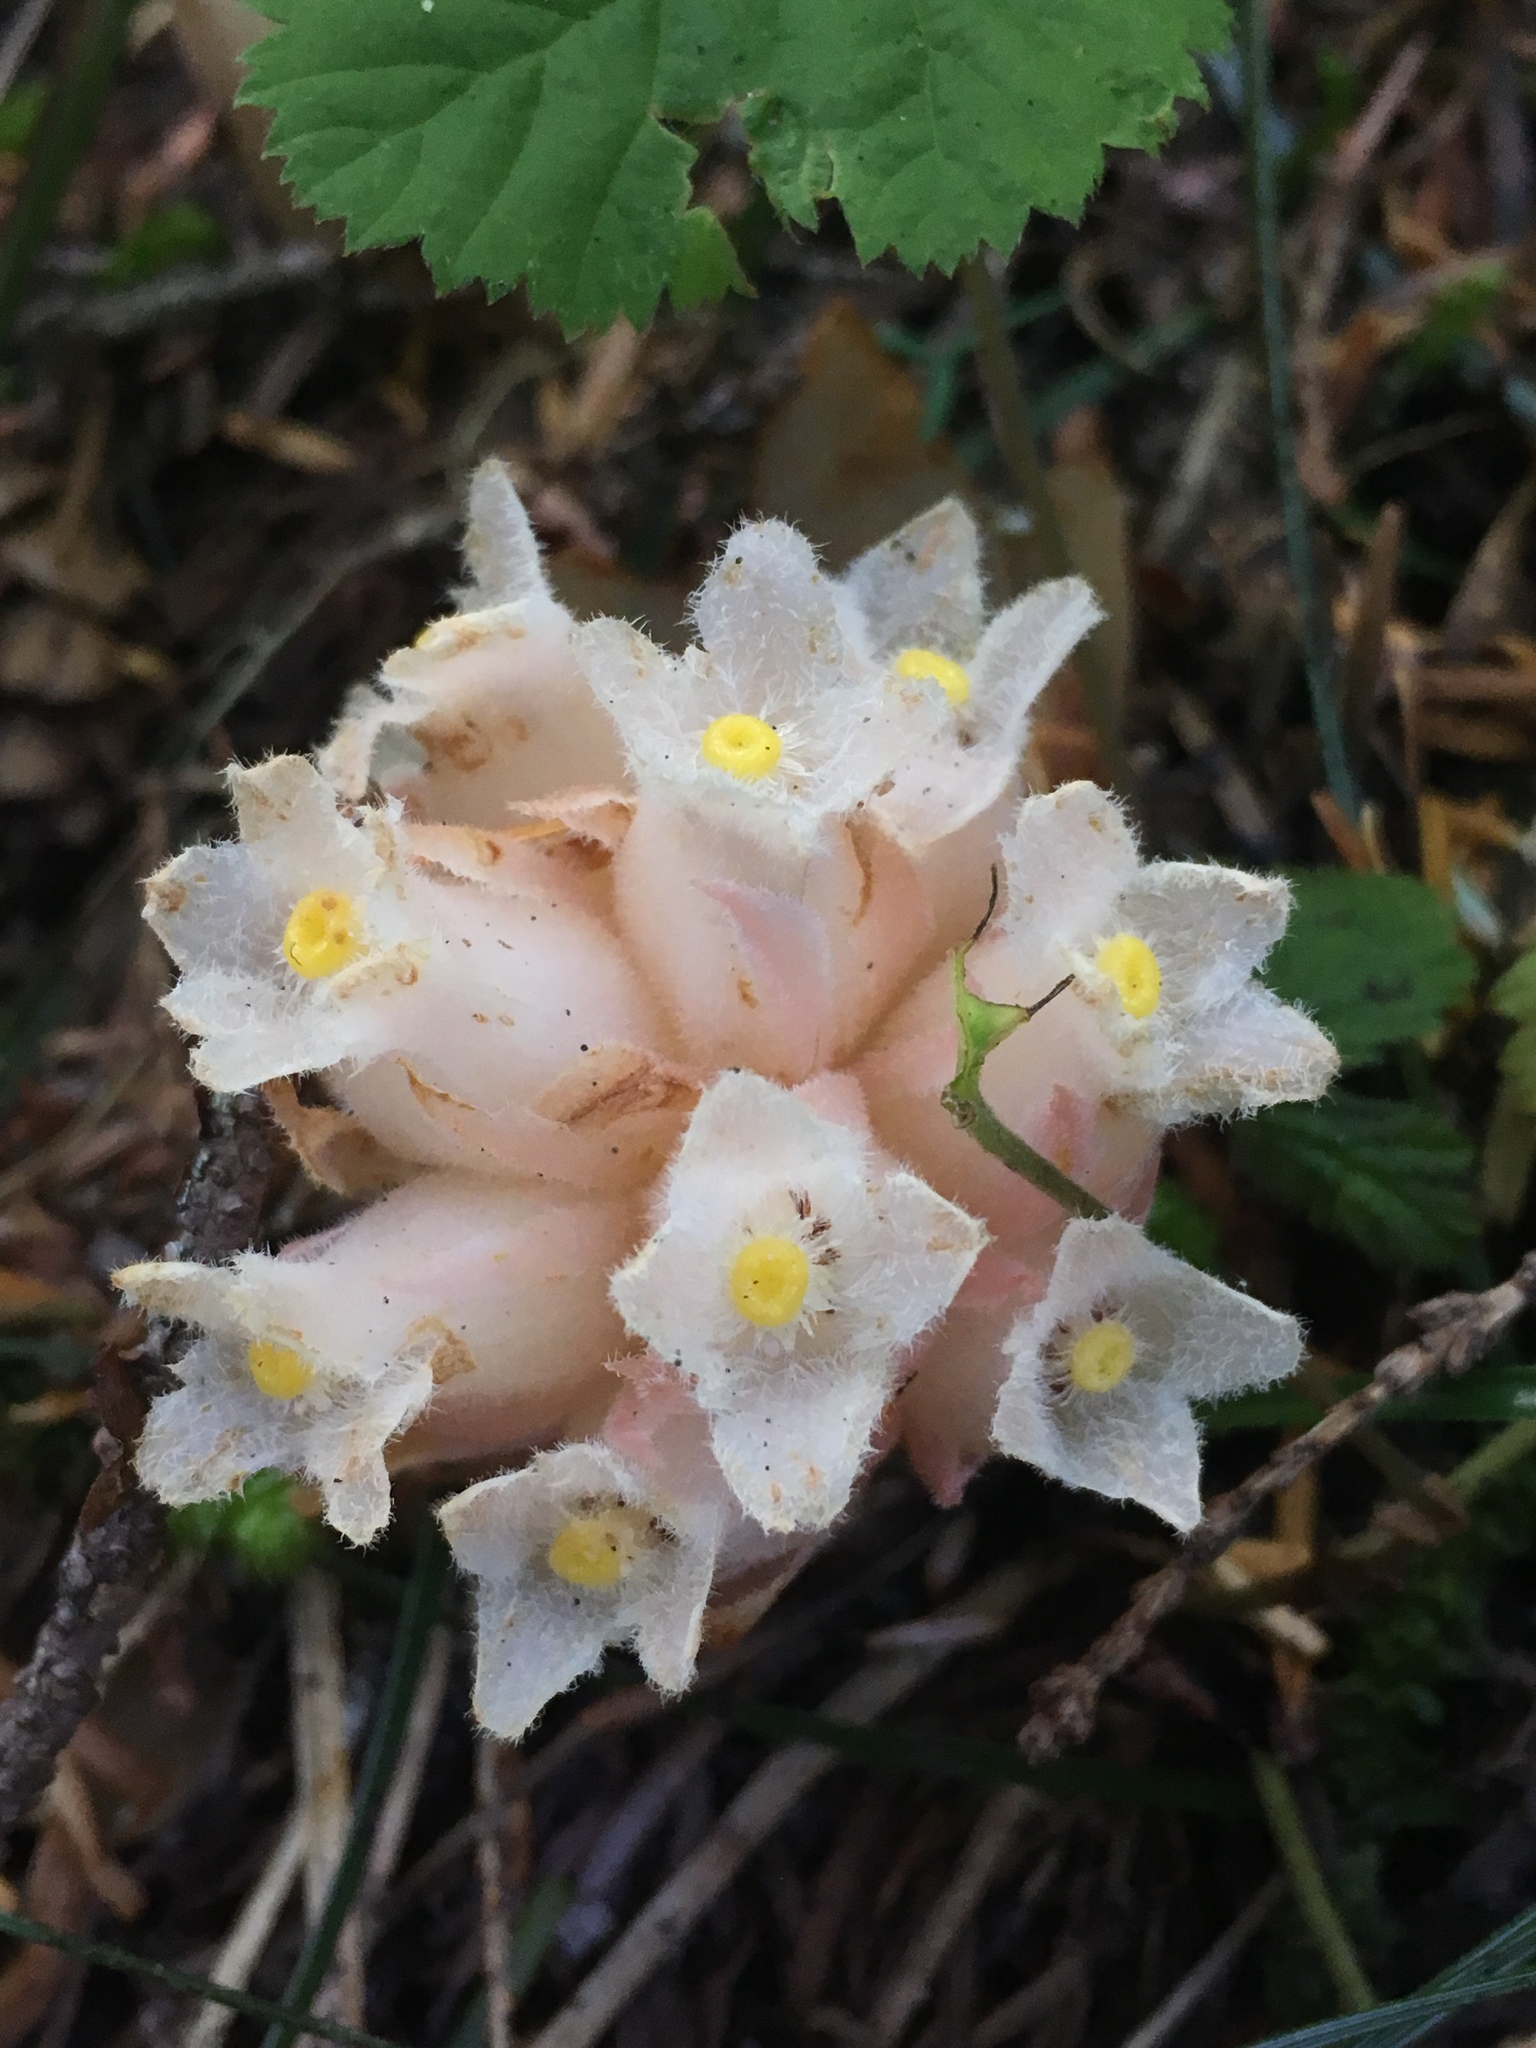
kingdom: Plantae
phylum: Tracheophyta
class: Magnoliopsida
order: Ericales
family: Ericaceae
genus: Hemitomes
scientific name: Hemitomes congestum
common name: Cone plant
